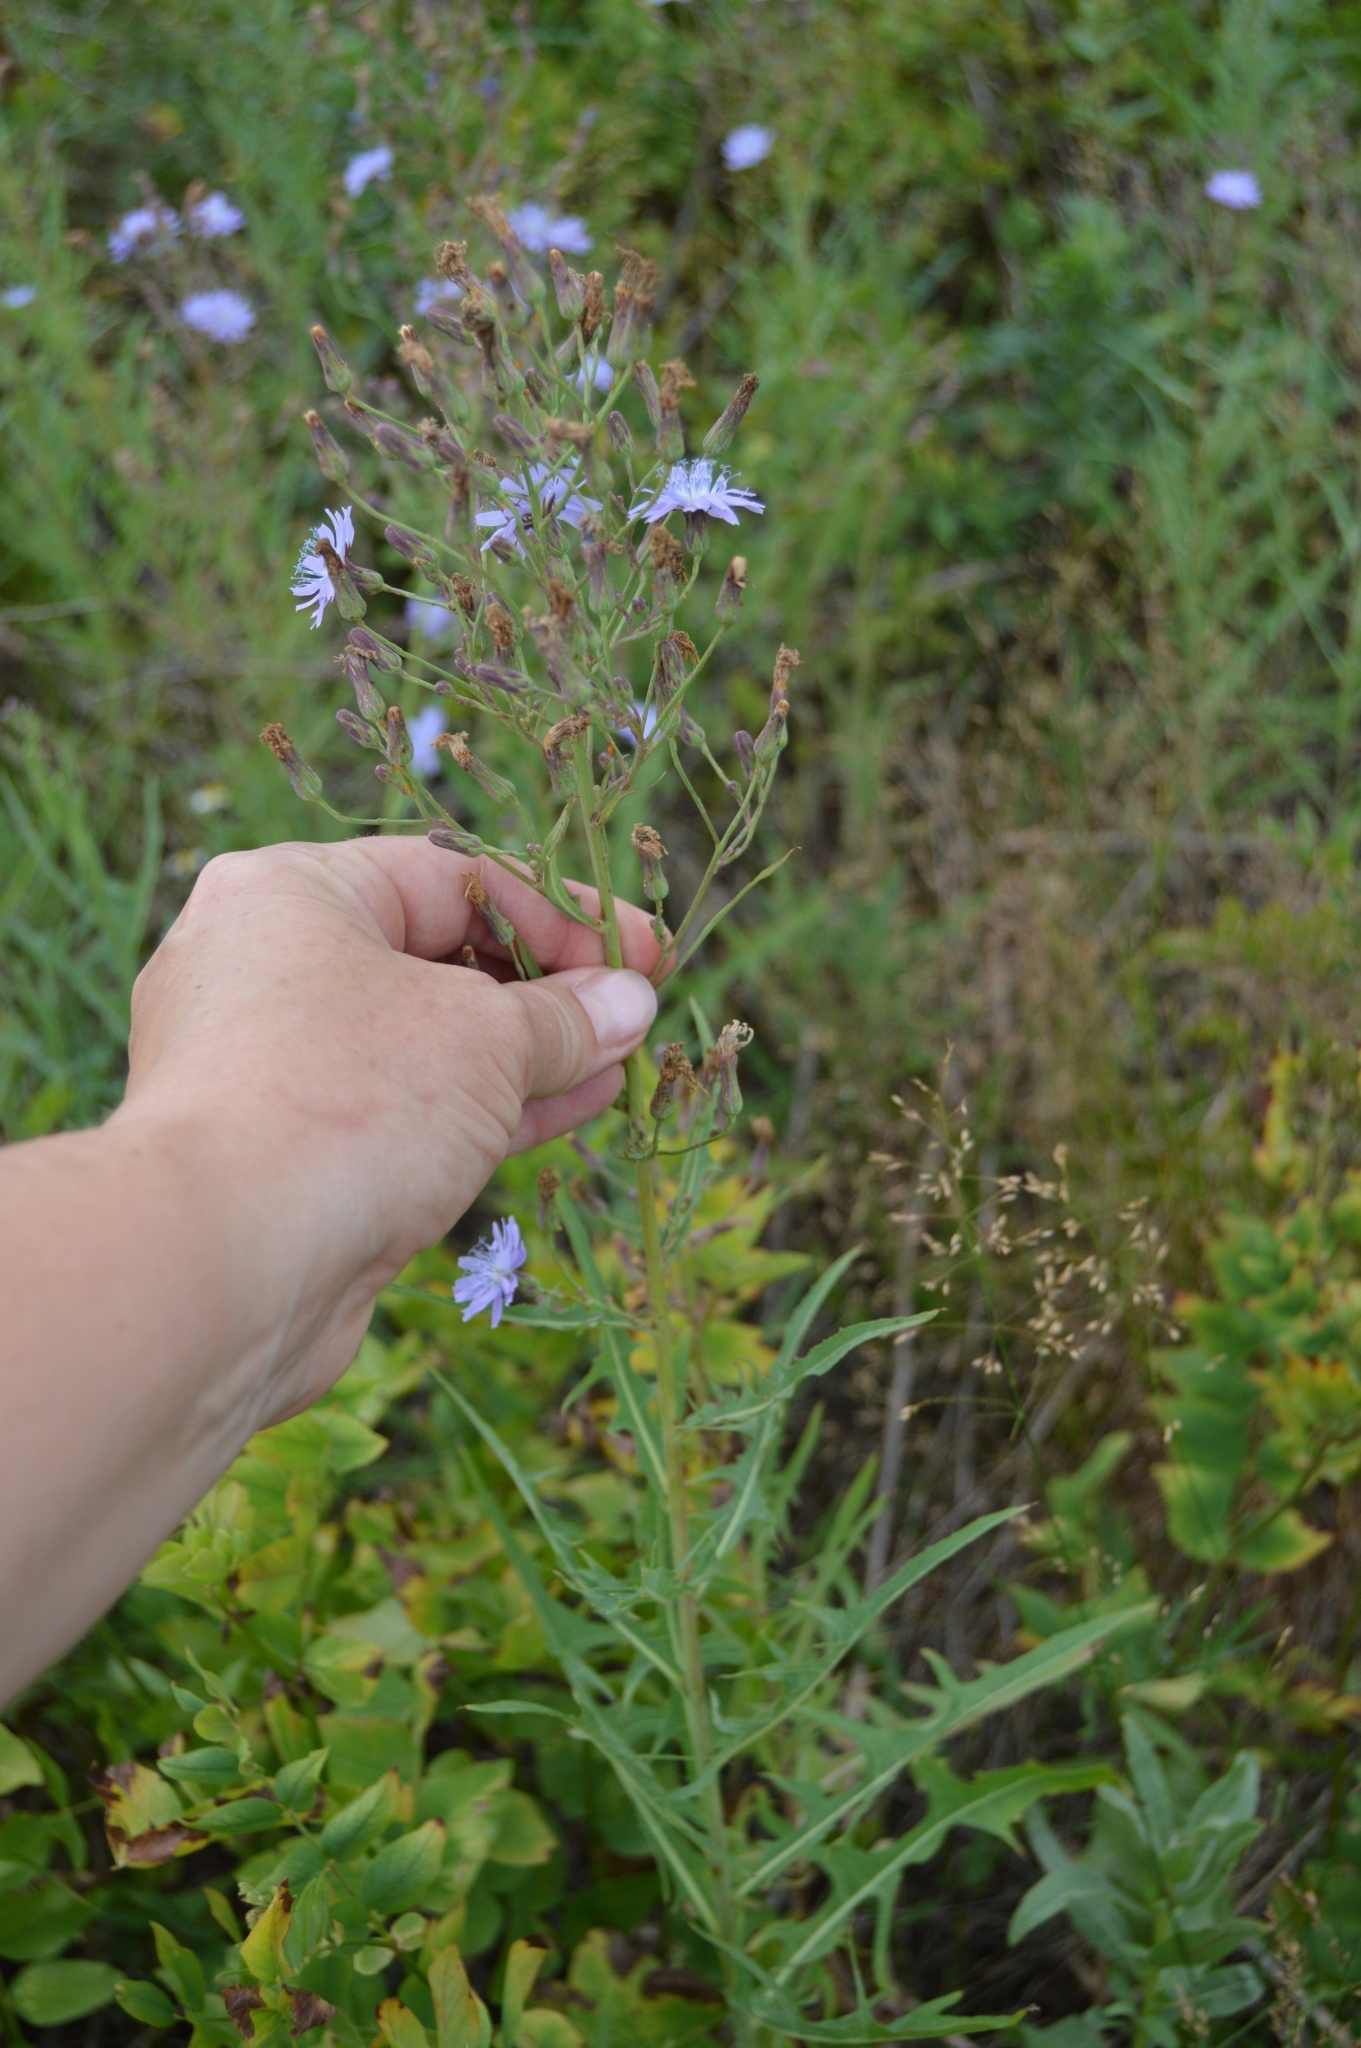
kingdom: Plantae
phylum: Tracheophyta
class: Magnoliopsida
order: Asterales
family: Asteraceae
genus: Lactuca
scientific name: Lactuca tatarica
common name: Blue lettuce
